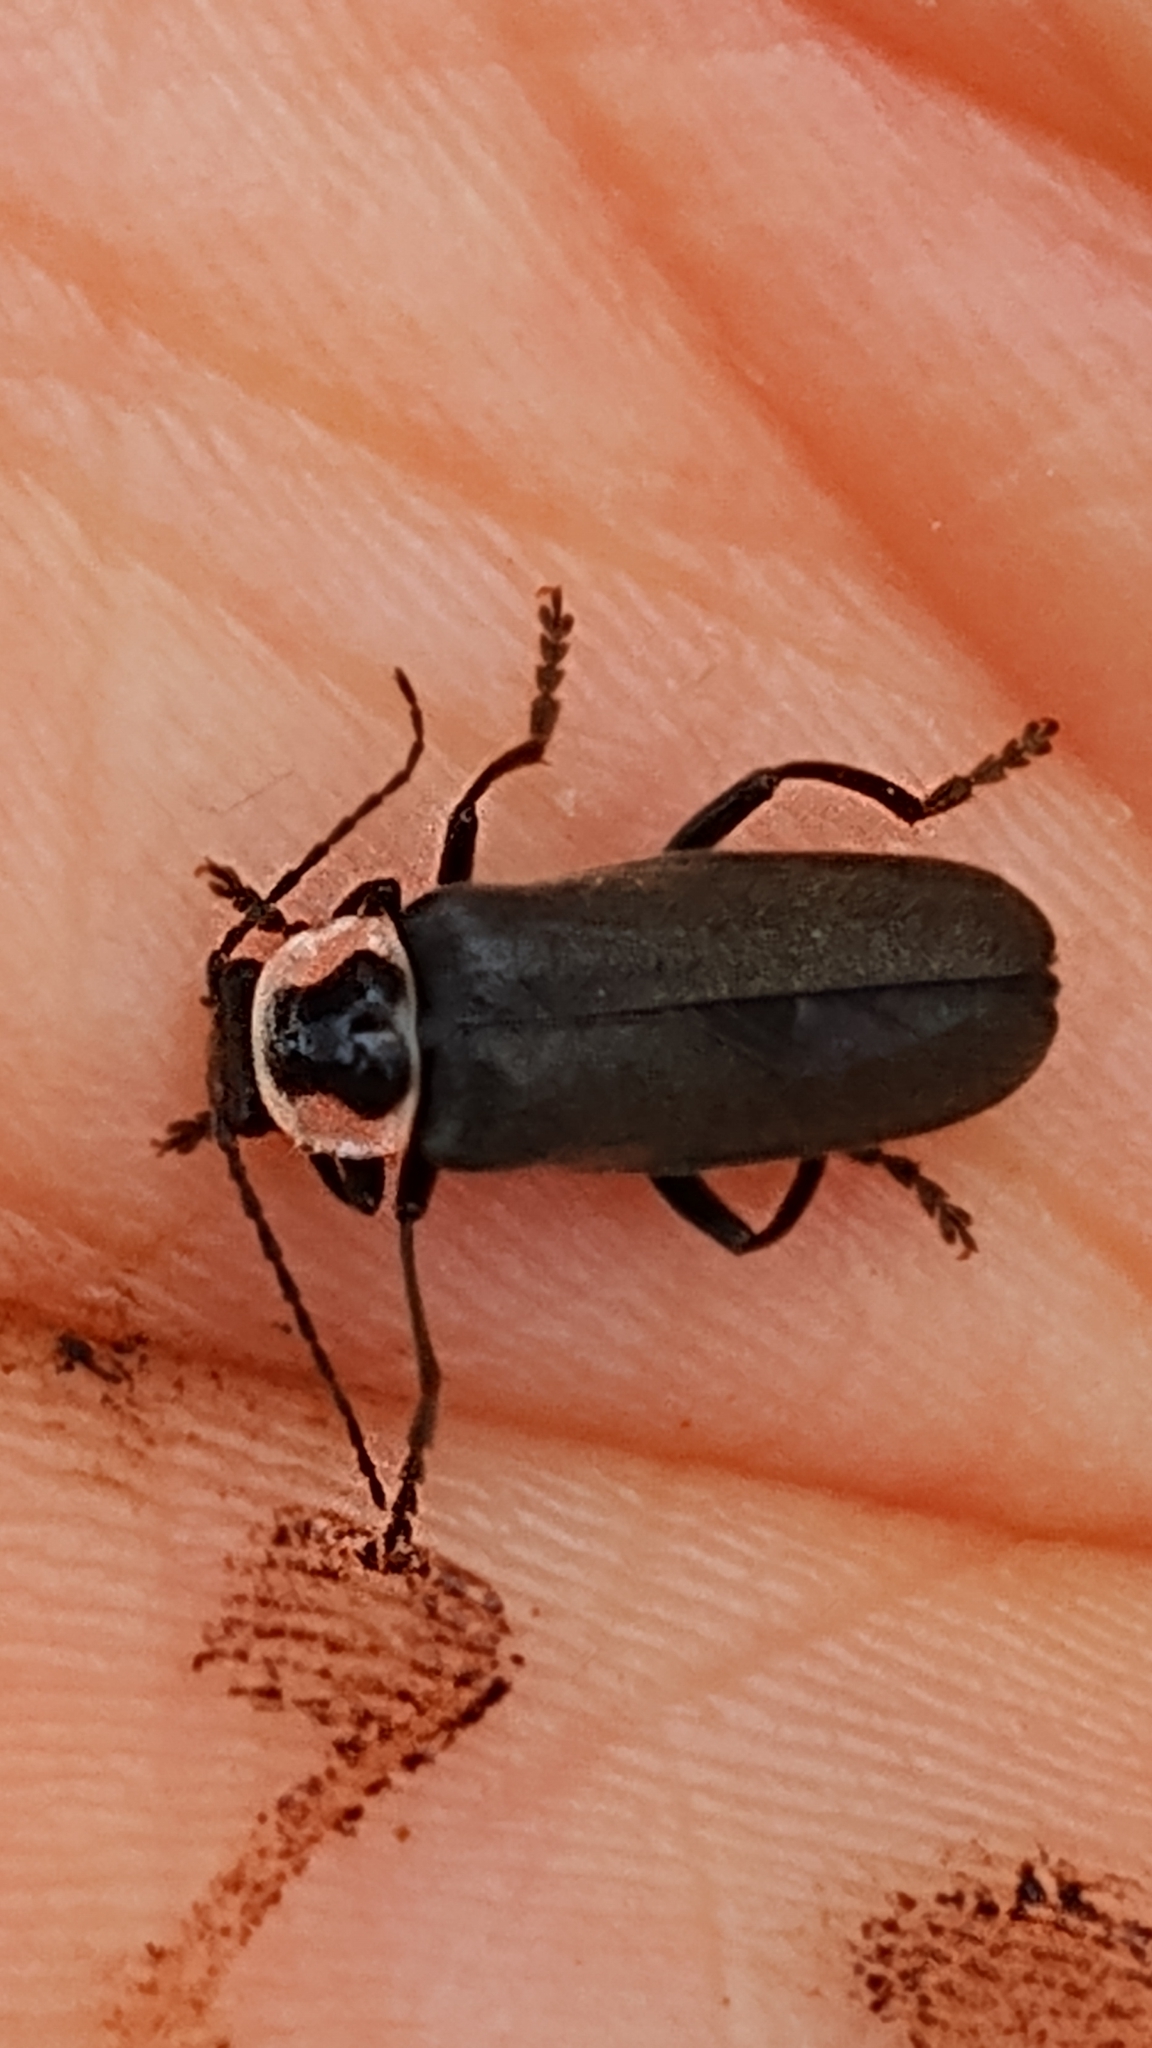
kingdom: Animalia
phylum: Arthropoda
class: Insecta
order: Coleoptera
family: Cantharidae
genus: Rhaxonycha
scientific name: Rhaxonycha carolina
